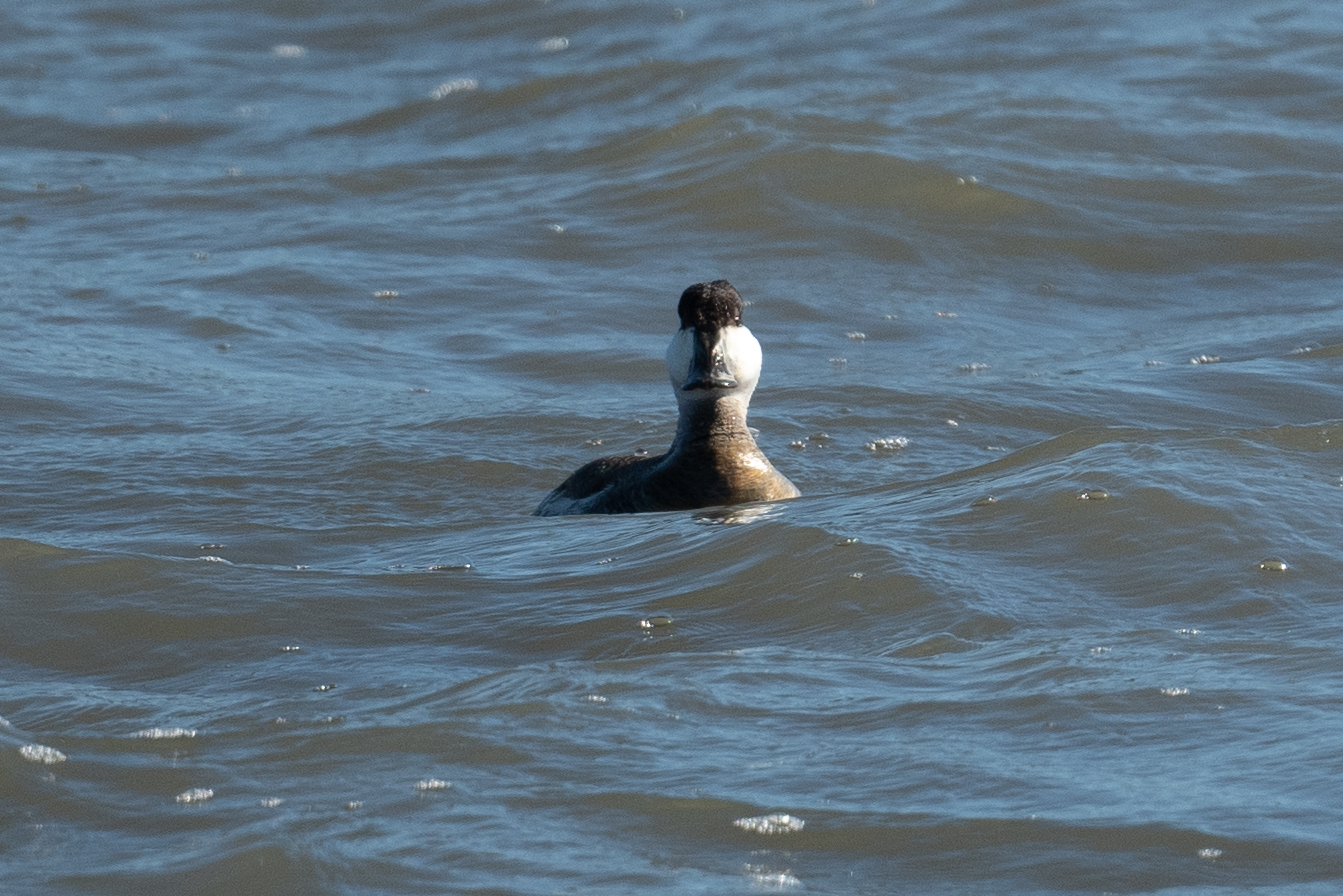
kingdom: Animalia
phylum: Chordata
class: Aves
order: Anseriformes
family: Anatidae
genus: Oxyura
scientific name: Oxyura jamaicensis
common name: Ruddy duck
